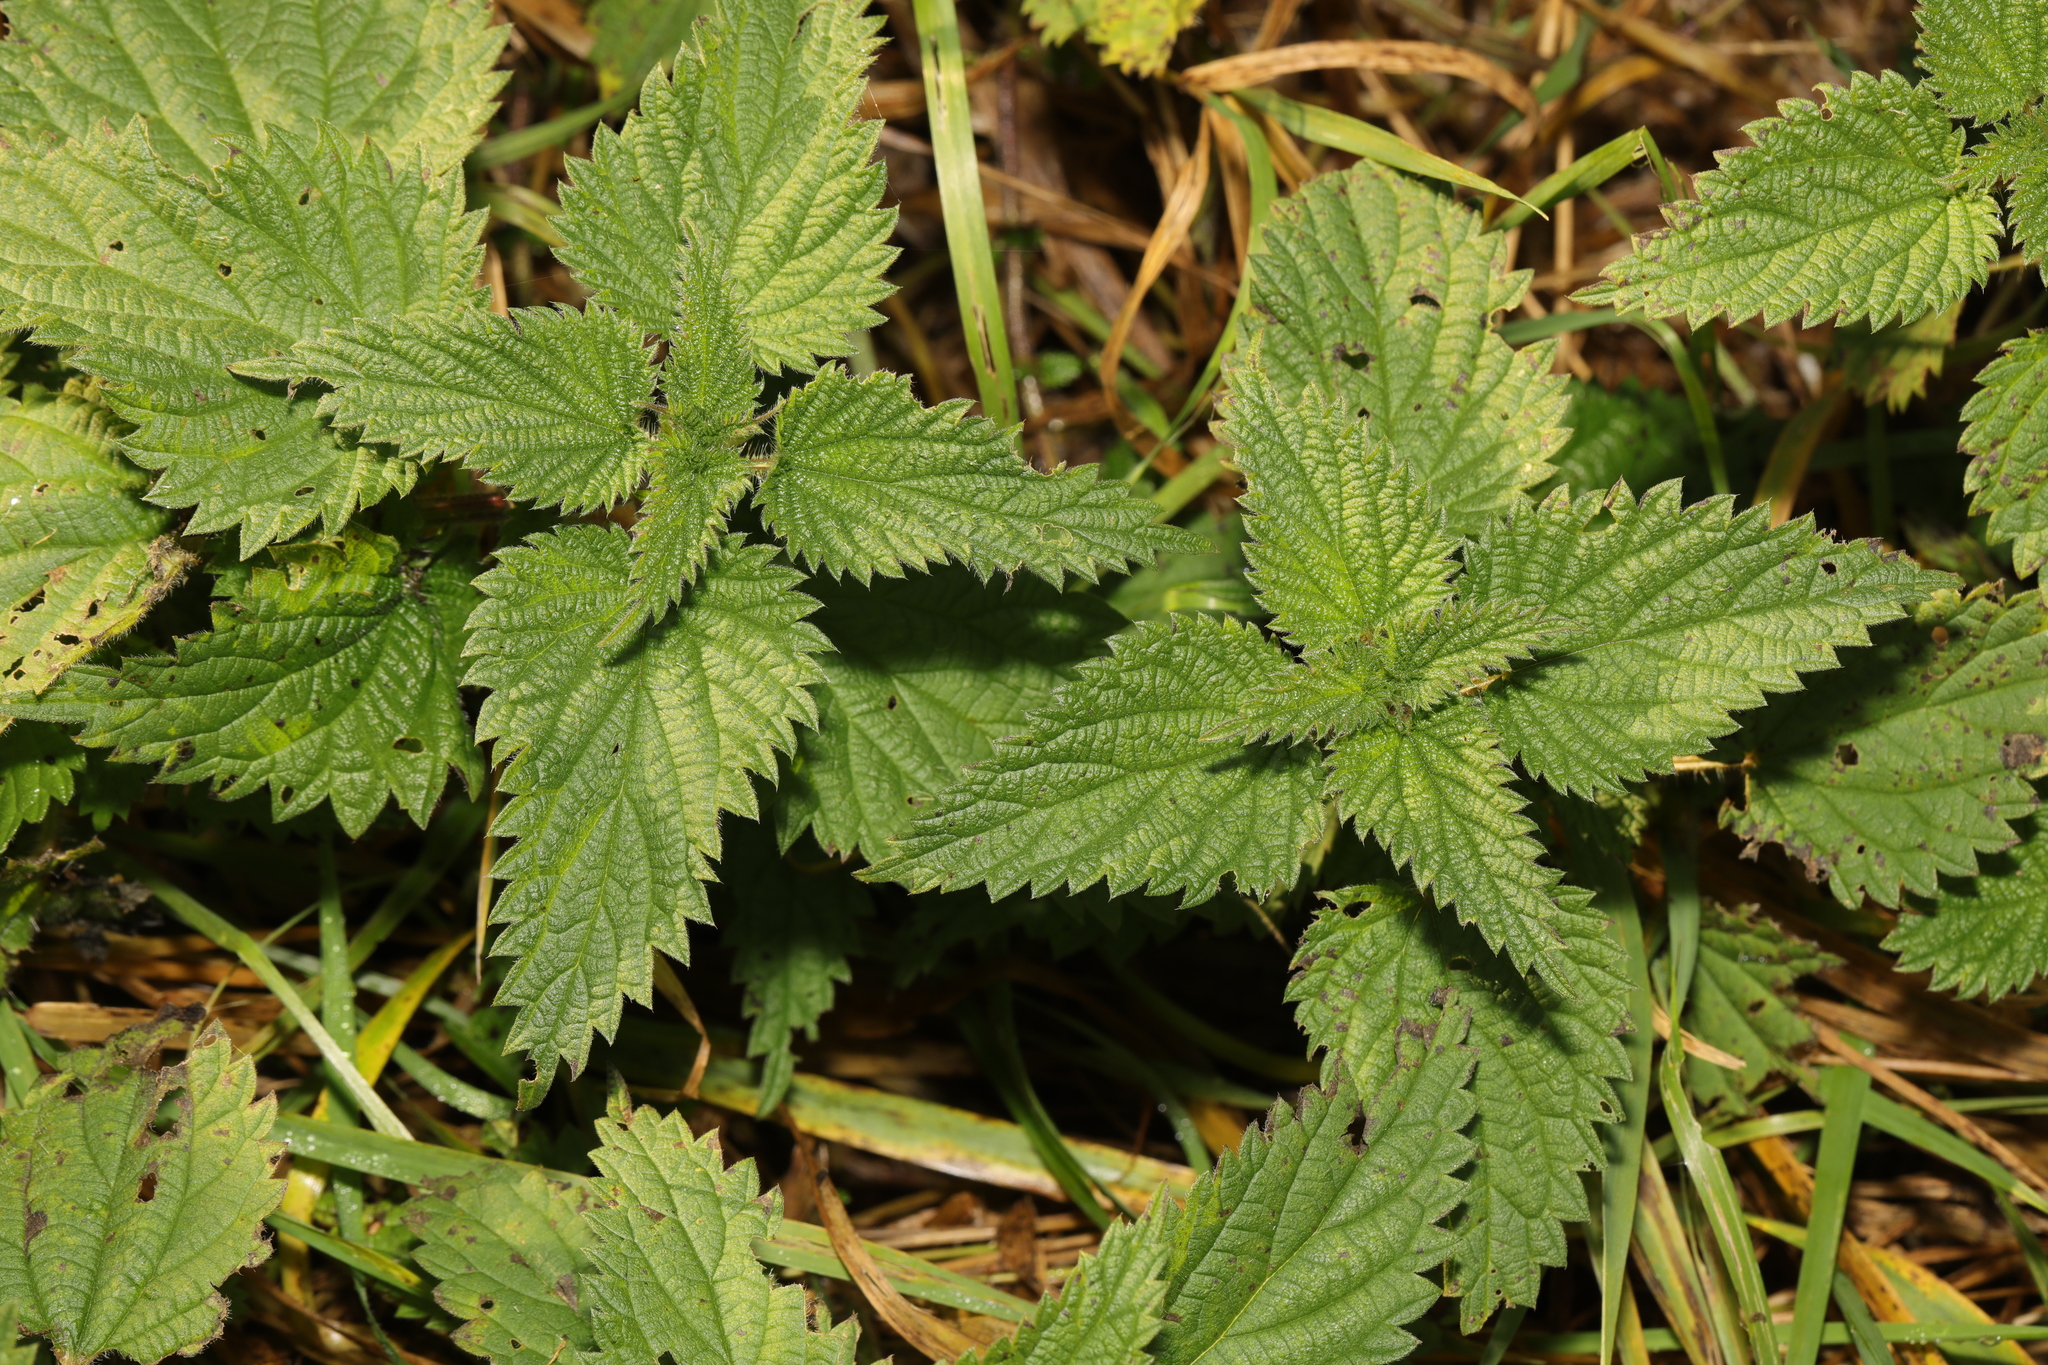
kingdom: Plantae
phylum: Tracheophyta
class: Magnoliopsida
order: Rosales
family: Urticaceae
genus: Urtica
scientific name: Urtica dioica
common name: Common nettle
